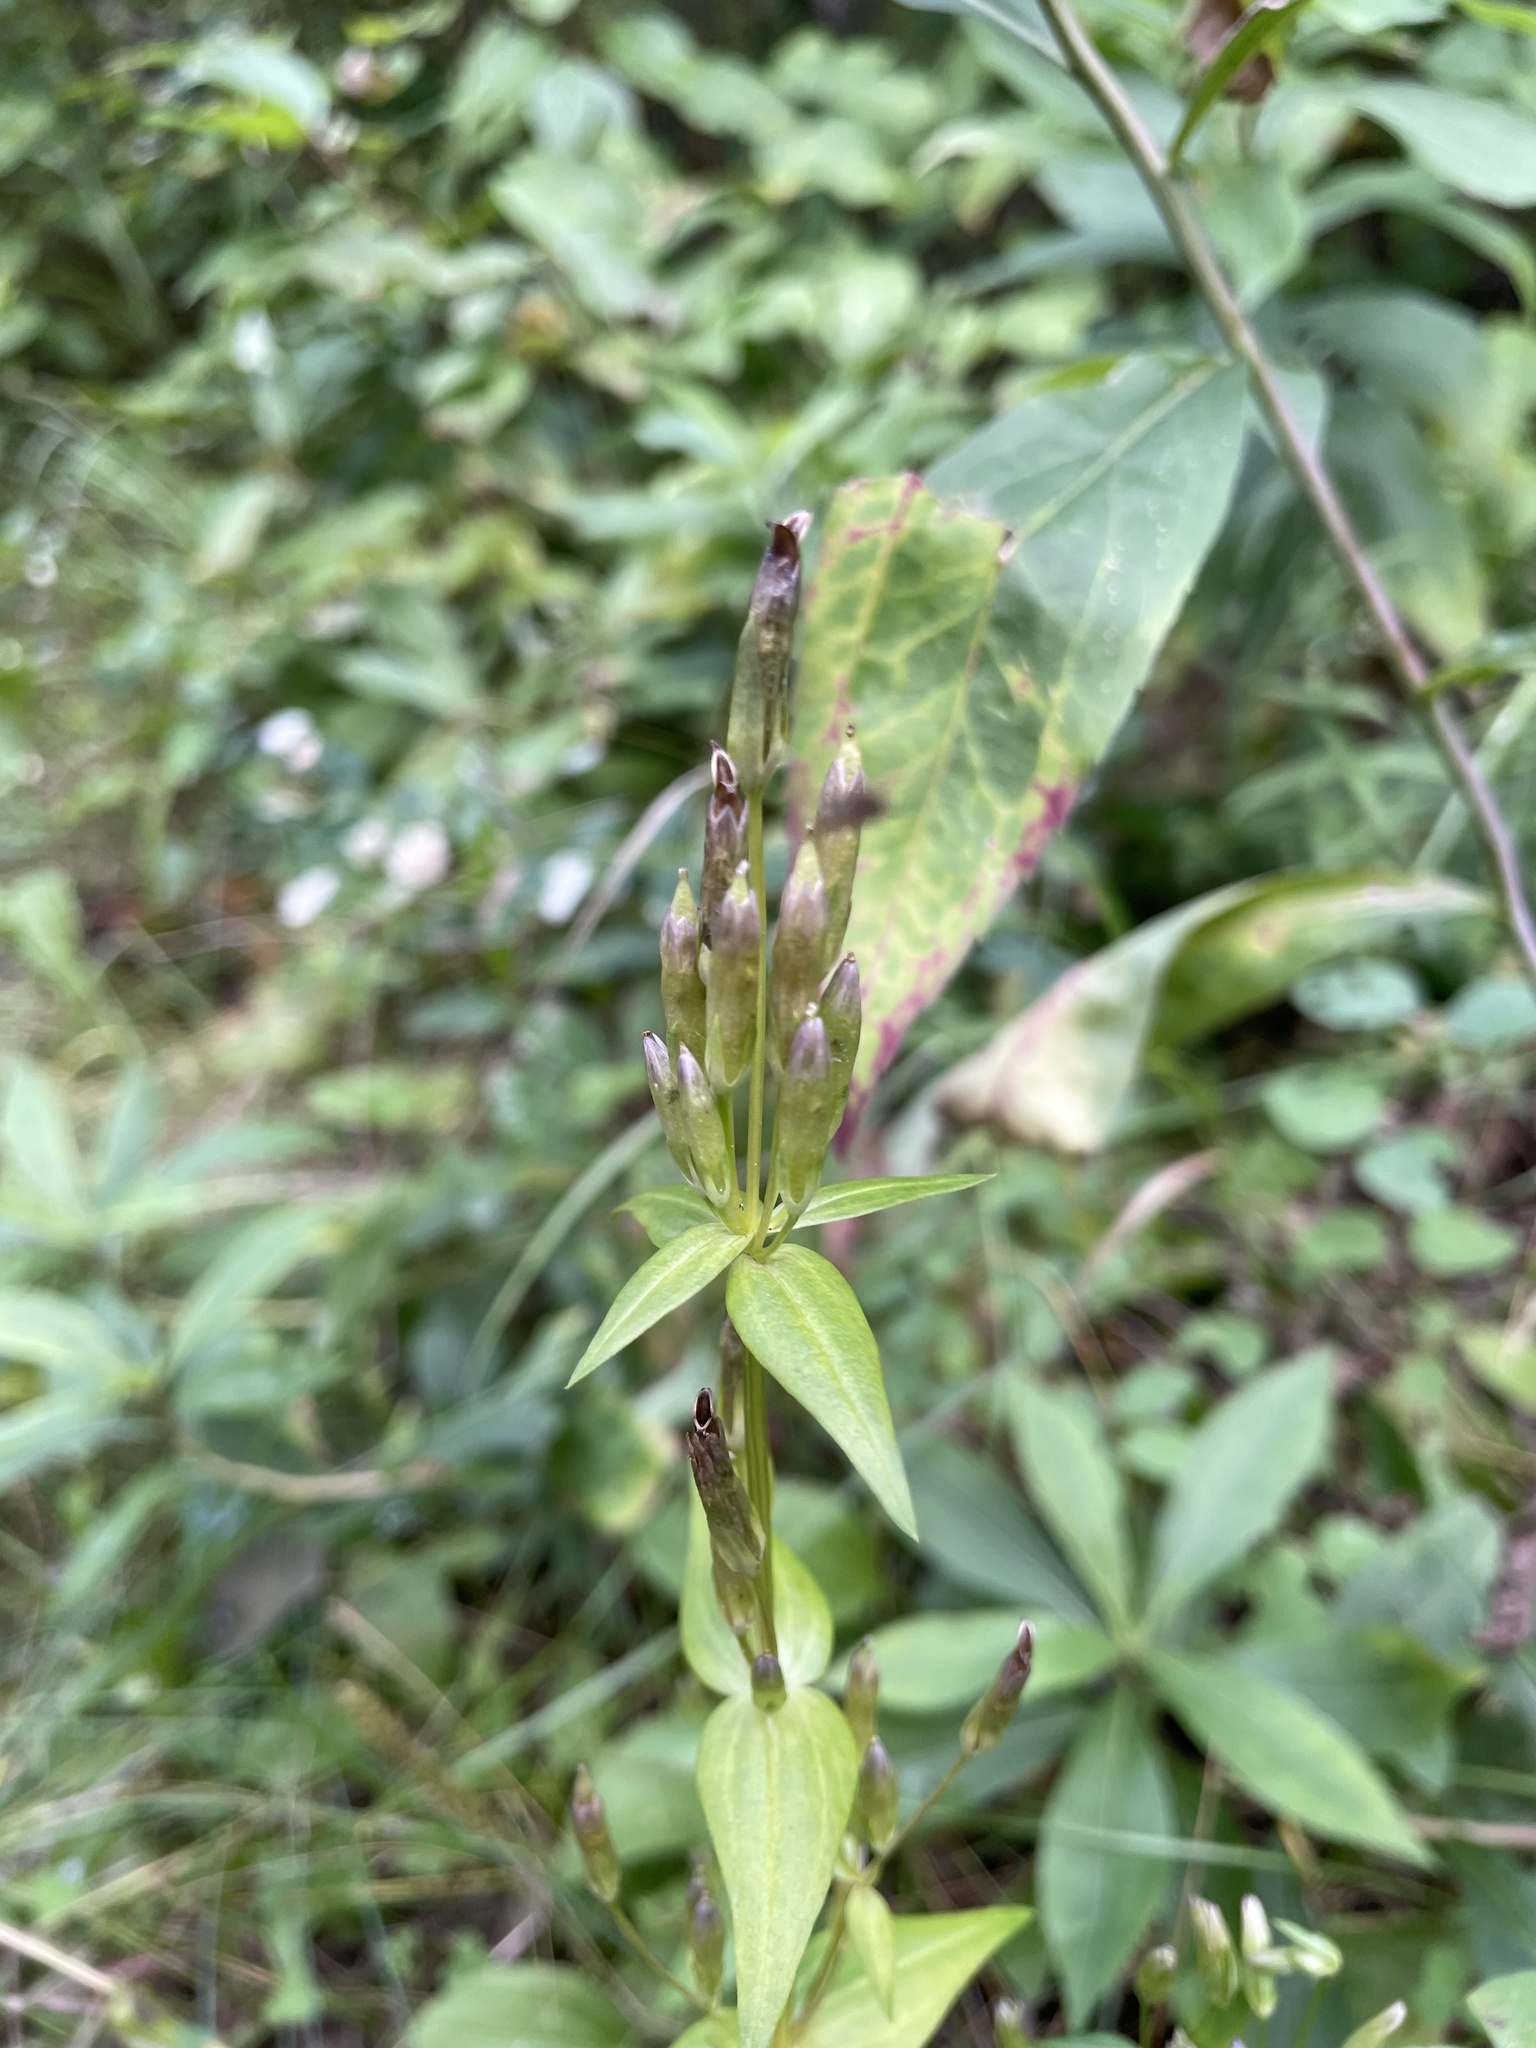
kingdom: Plantae
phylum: Tracheophyta
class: Magnoliopsida
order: Gentianales
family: Gentianaceae
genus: Gentianella
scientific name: Gentianella amarella
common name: Autumn gentian
